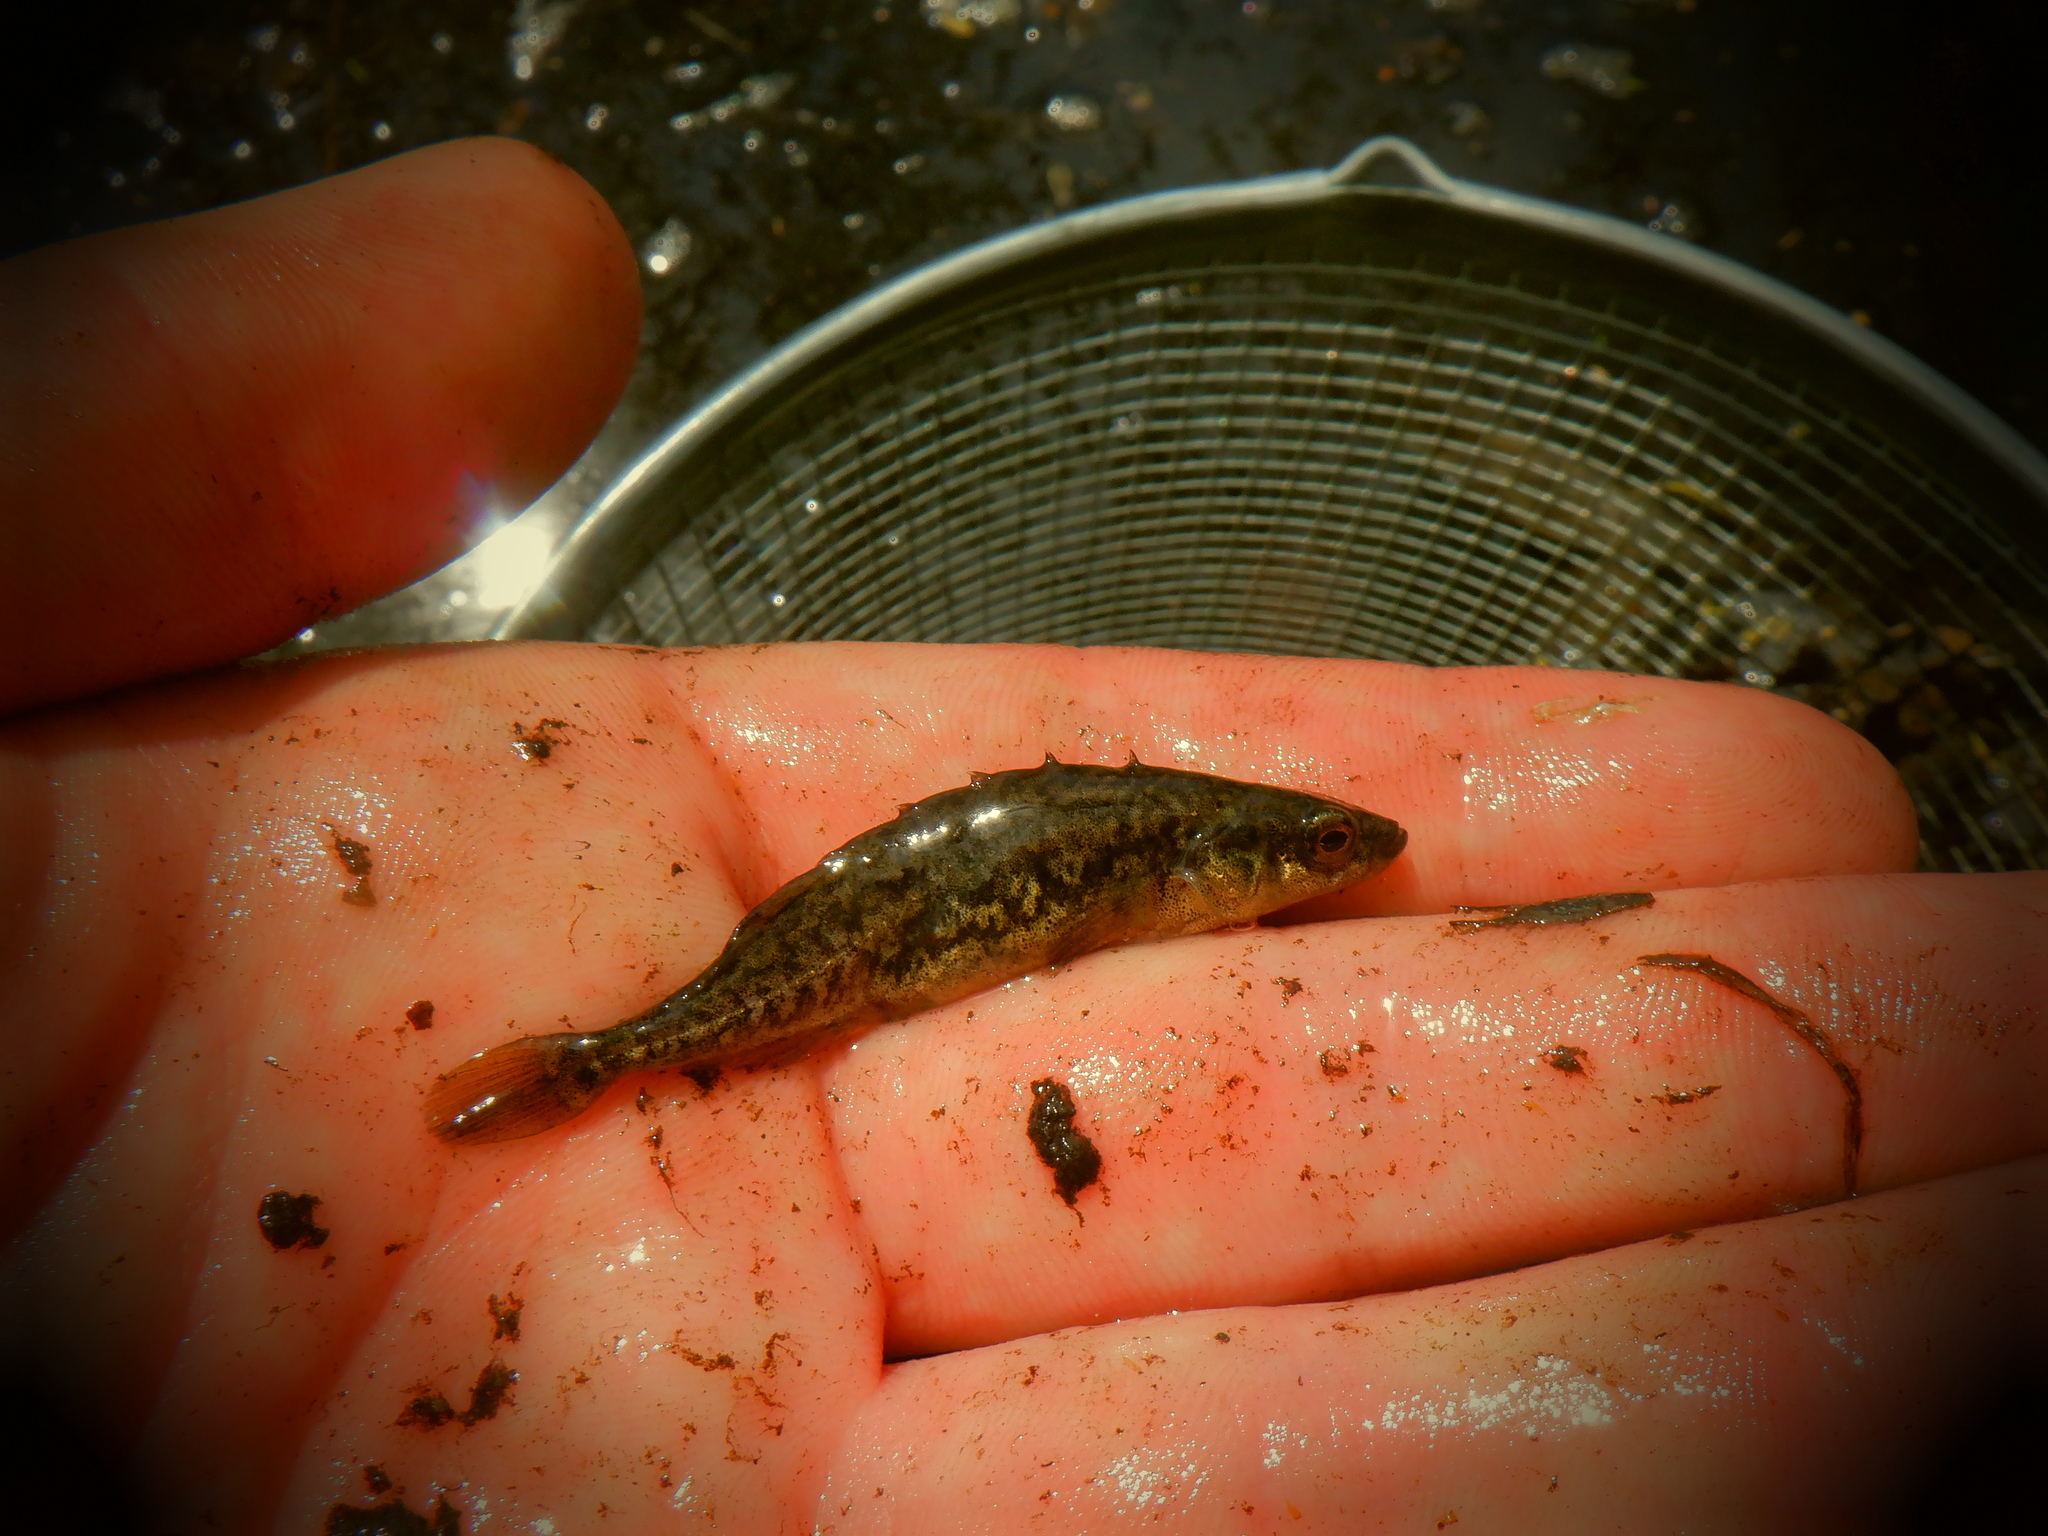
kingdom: Animalia
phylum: Chordata
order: Gasterosteiformes
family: Gasterosteidae
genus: Culaea
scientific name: Culaea inconstans
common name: Brook stickleback
